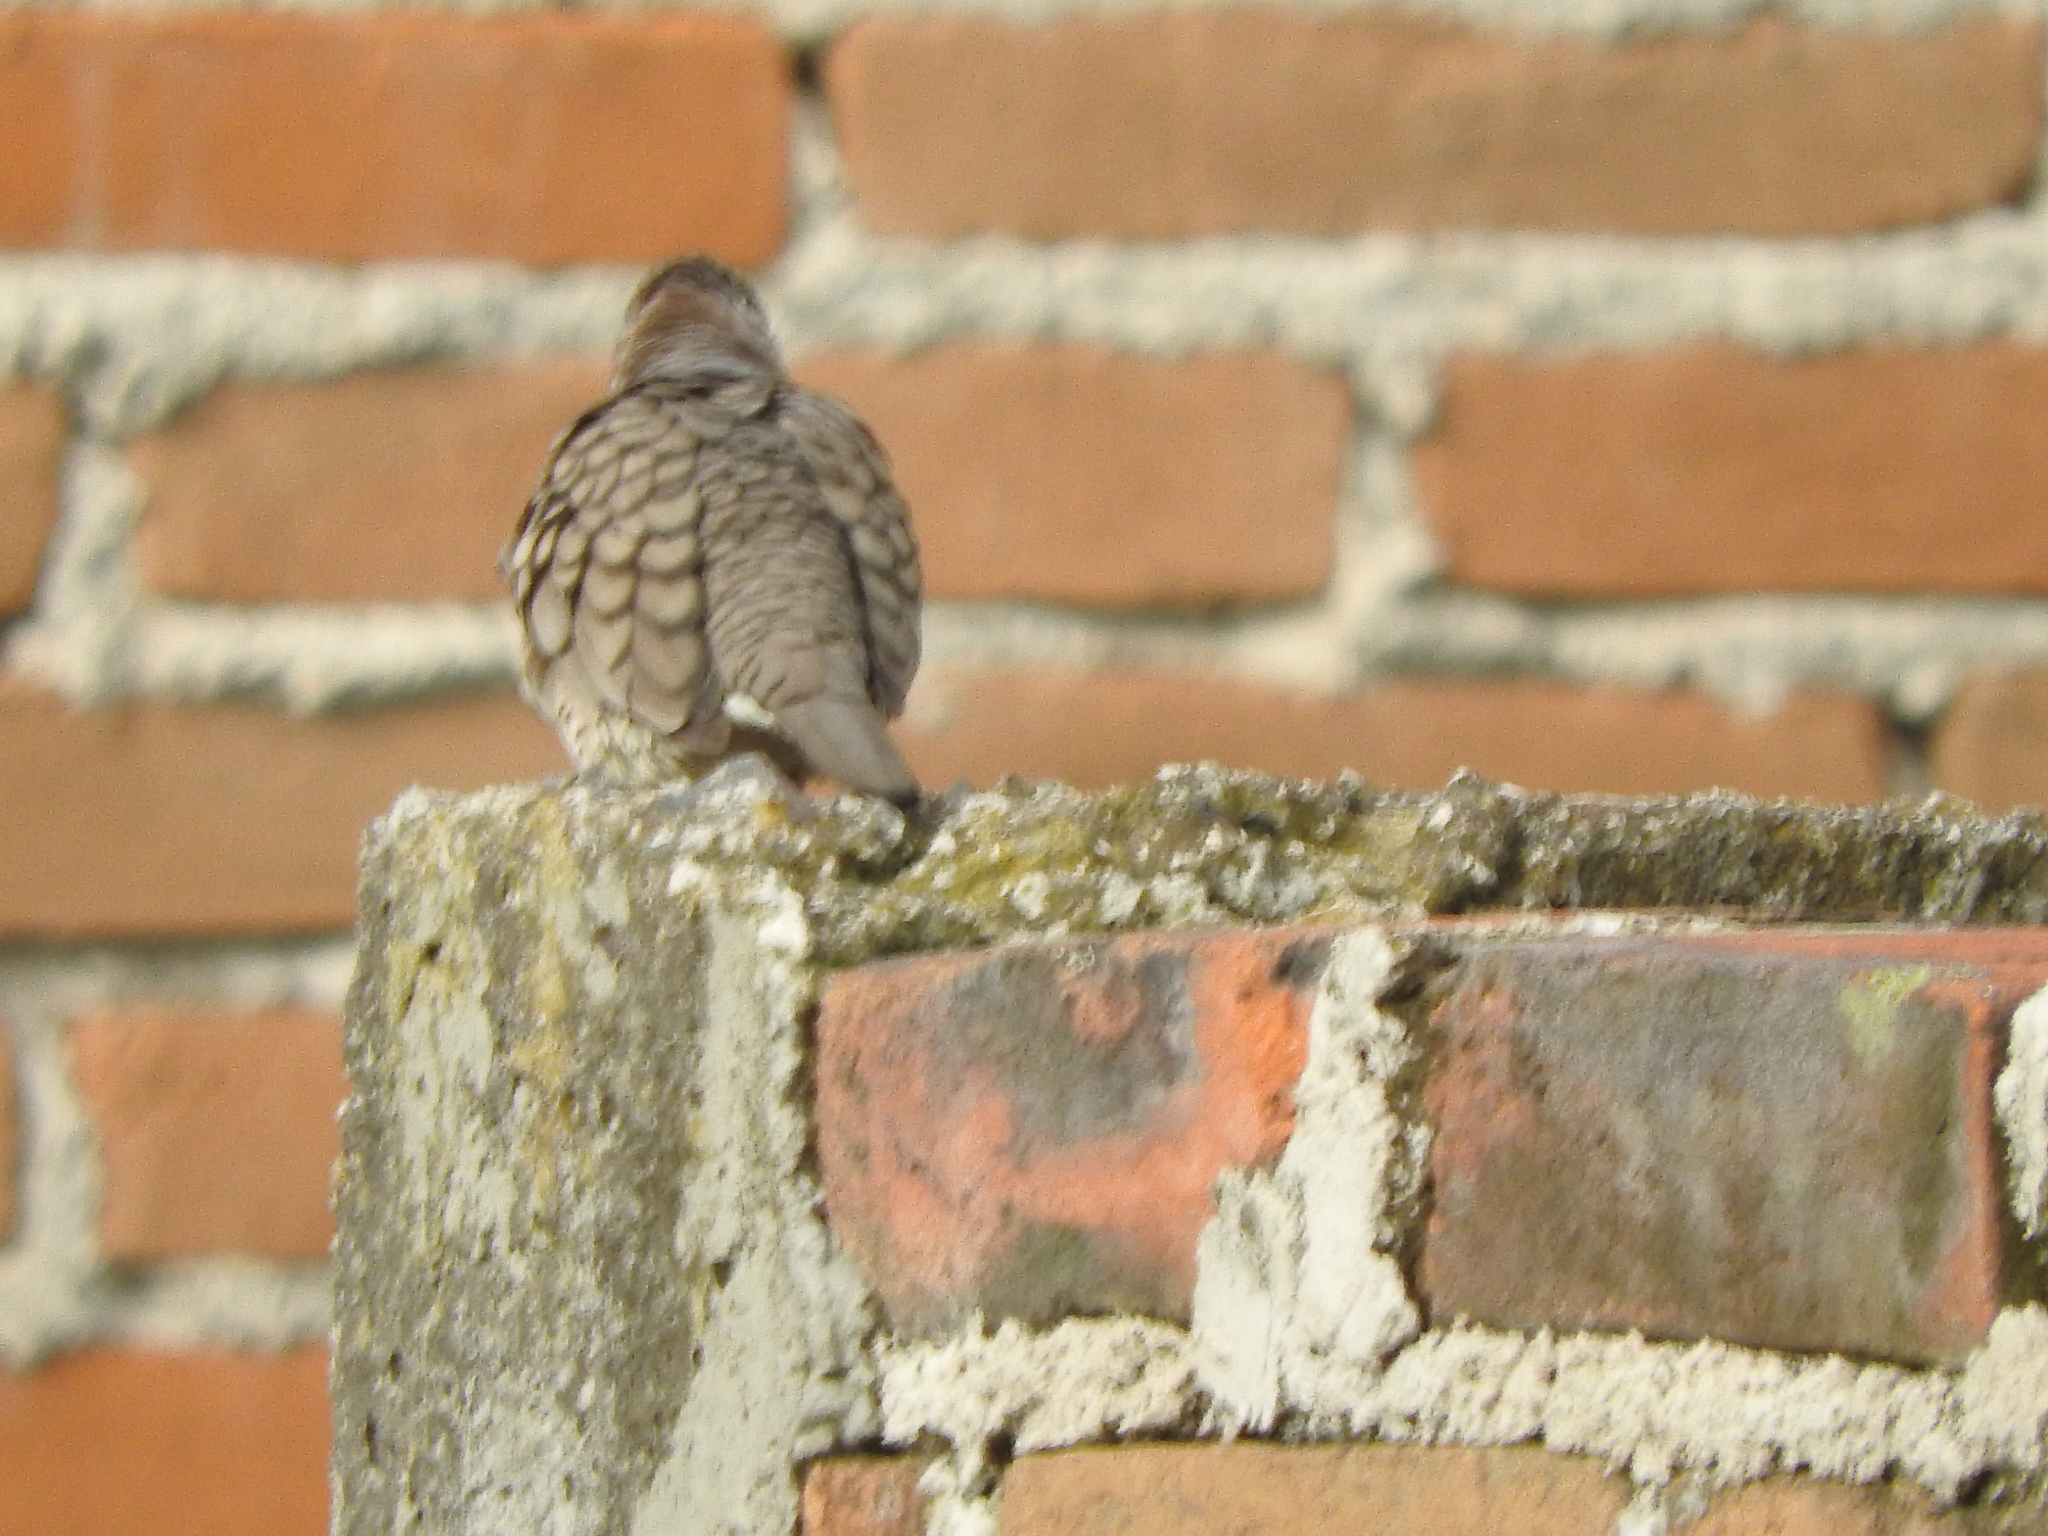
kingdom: Animalia
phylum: Chordata
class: Aves
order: Columbiformes
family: Columbidae
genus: Columbina
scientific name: Columbina inca
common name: Inca dove
